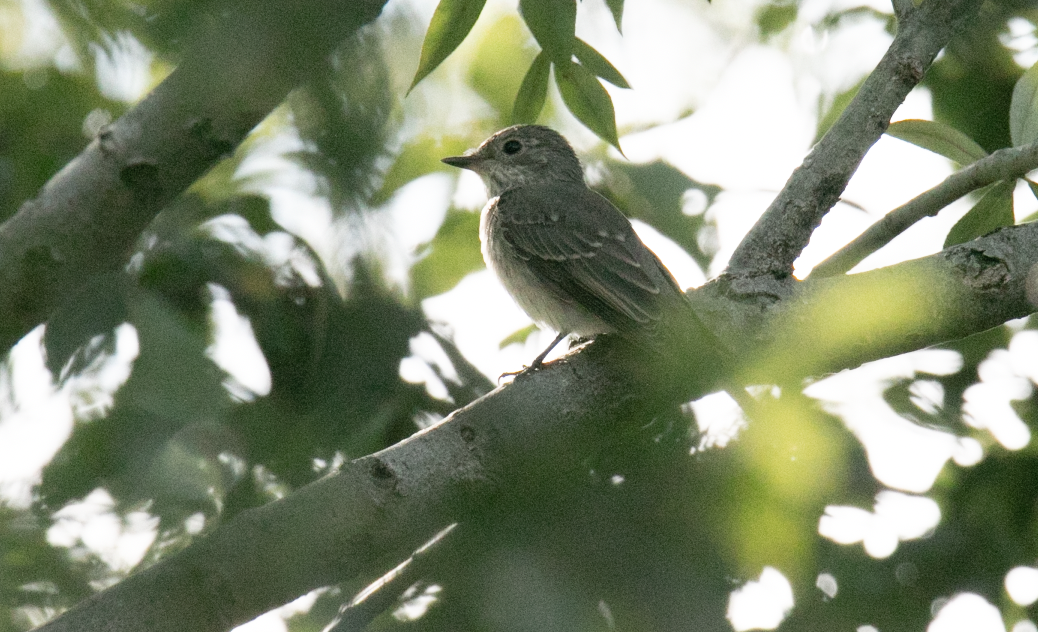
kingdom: Animalia
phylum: Chordata
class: Aves
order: Passeriformes
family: Muscicapidae
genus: Muscicapa
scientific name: Muscicapa striata
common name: Spotted flycatcher
